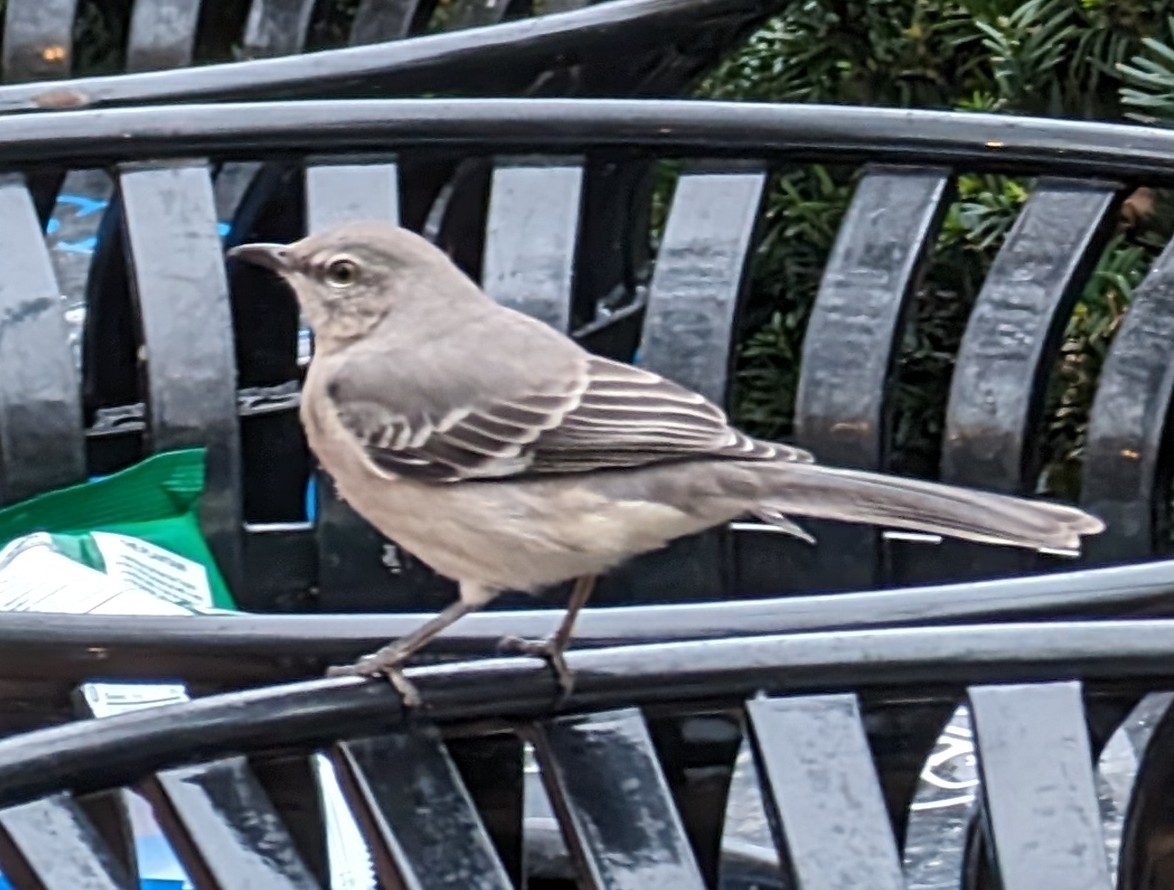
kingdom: Animalia
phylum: Chordata
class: Aves
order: Passeriformes
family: Mimidae
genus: Mimus
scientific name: Mimus polyglottos
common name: Northern mockingbird
